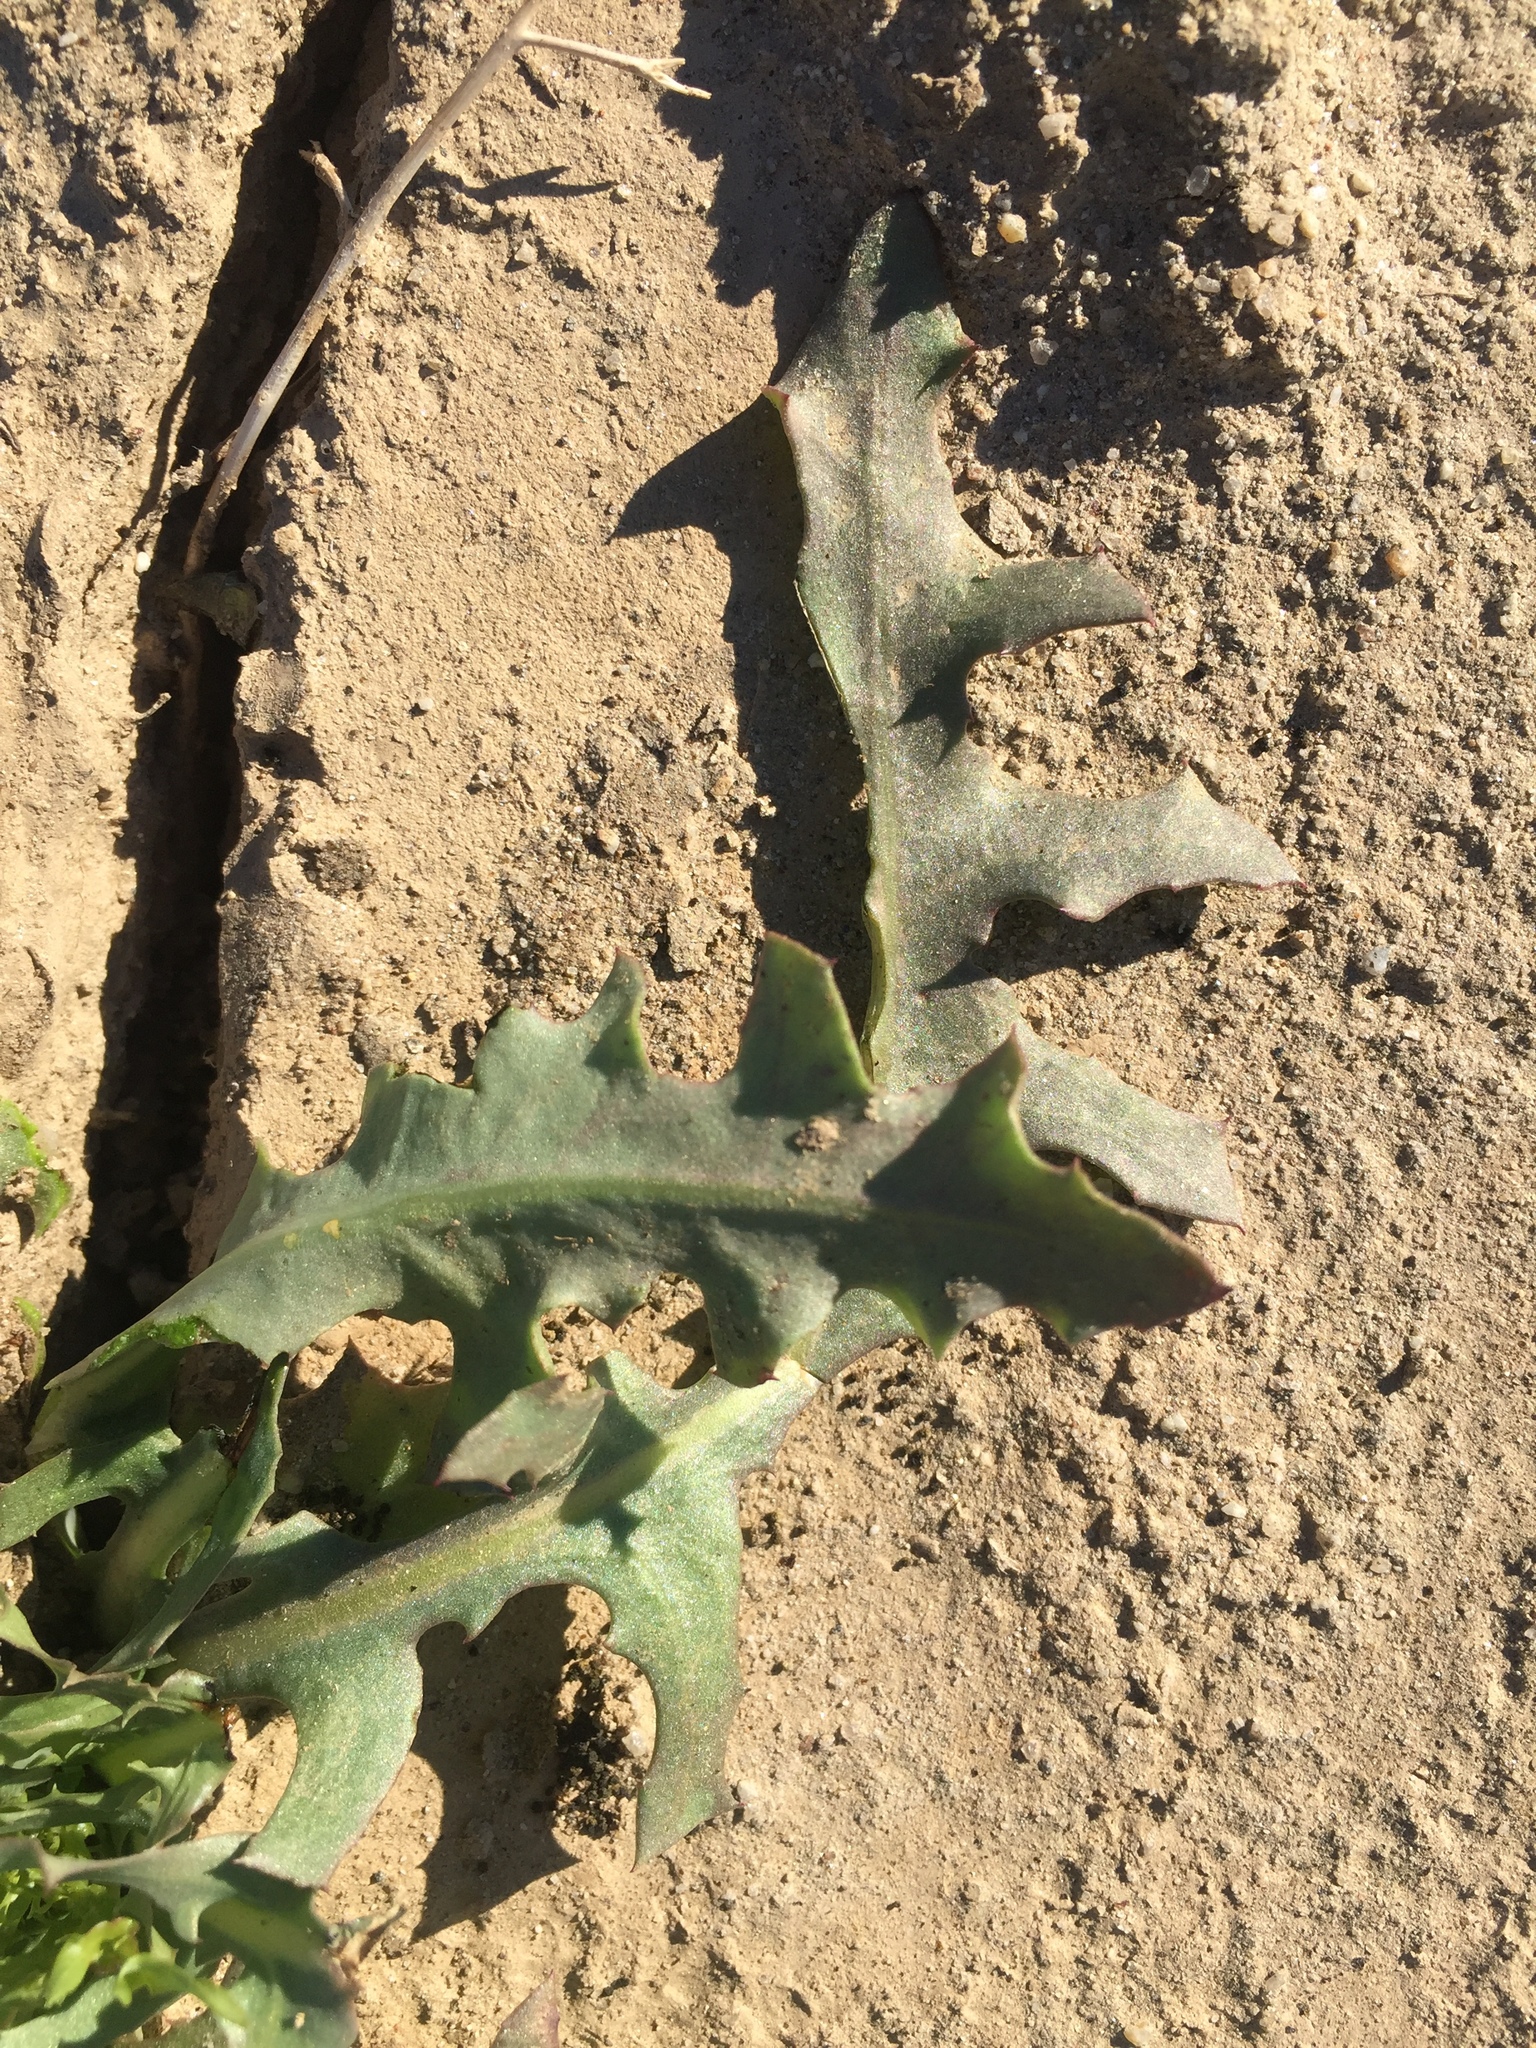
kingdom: Plantae
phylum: Tracheophyta
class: Magnoliopsida
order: Asterales
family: Asteraceae
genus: Rafinesquia
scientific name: Rafinesquia neomexicana
